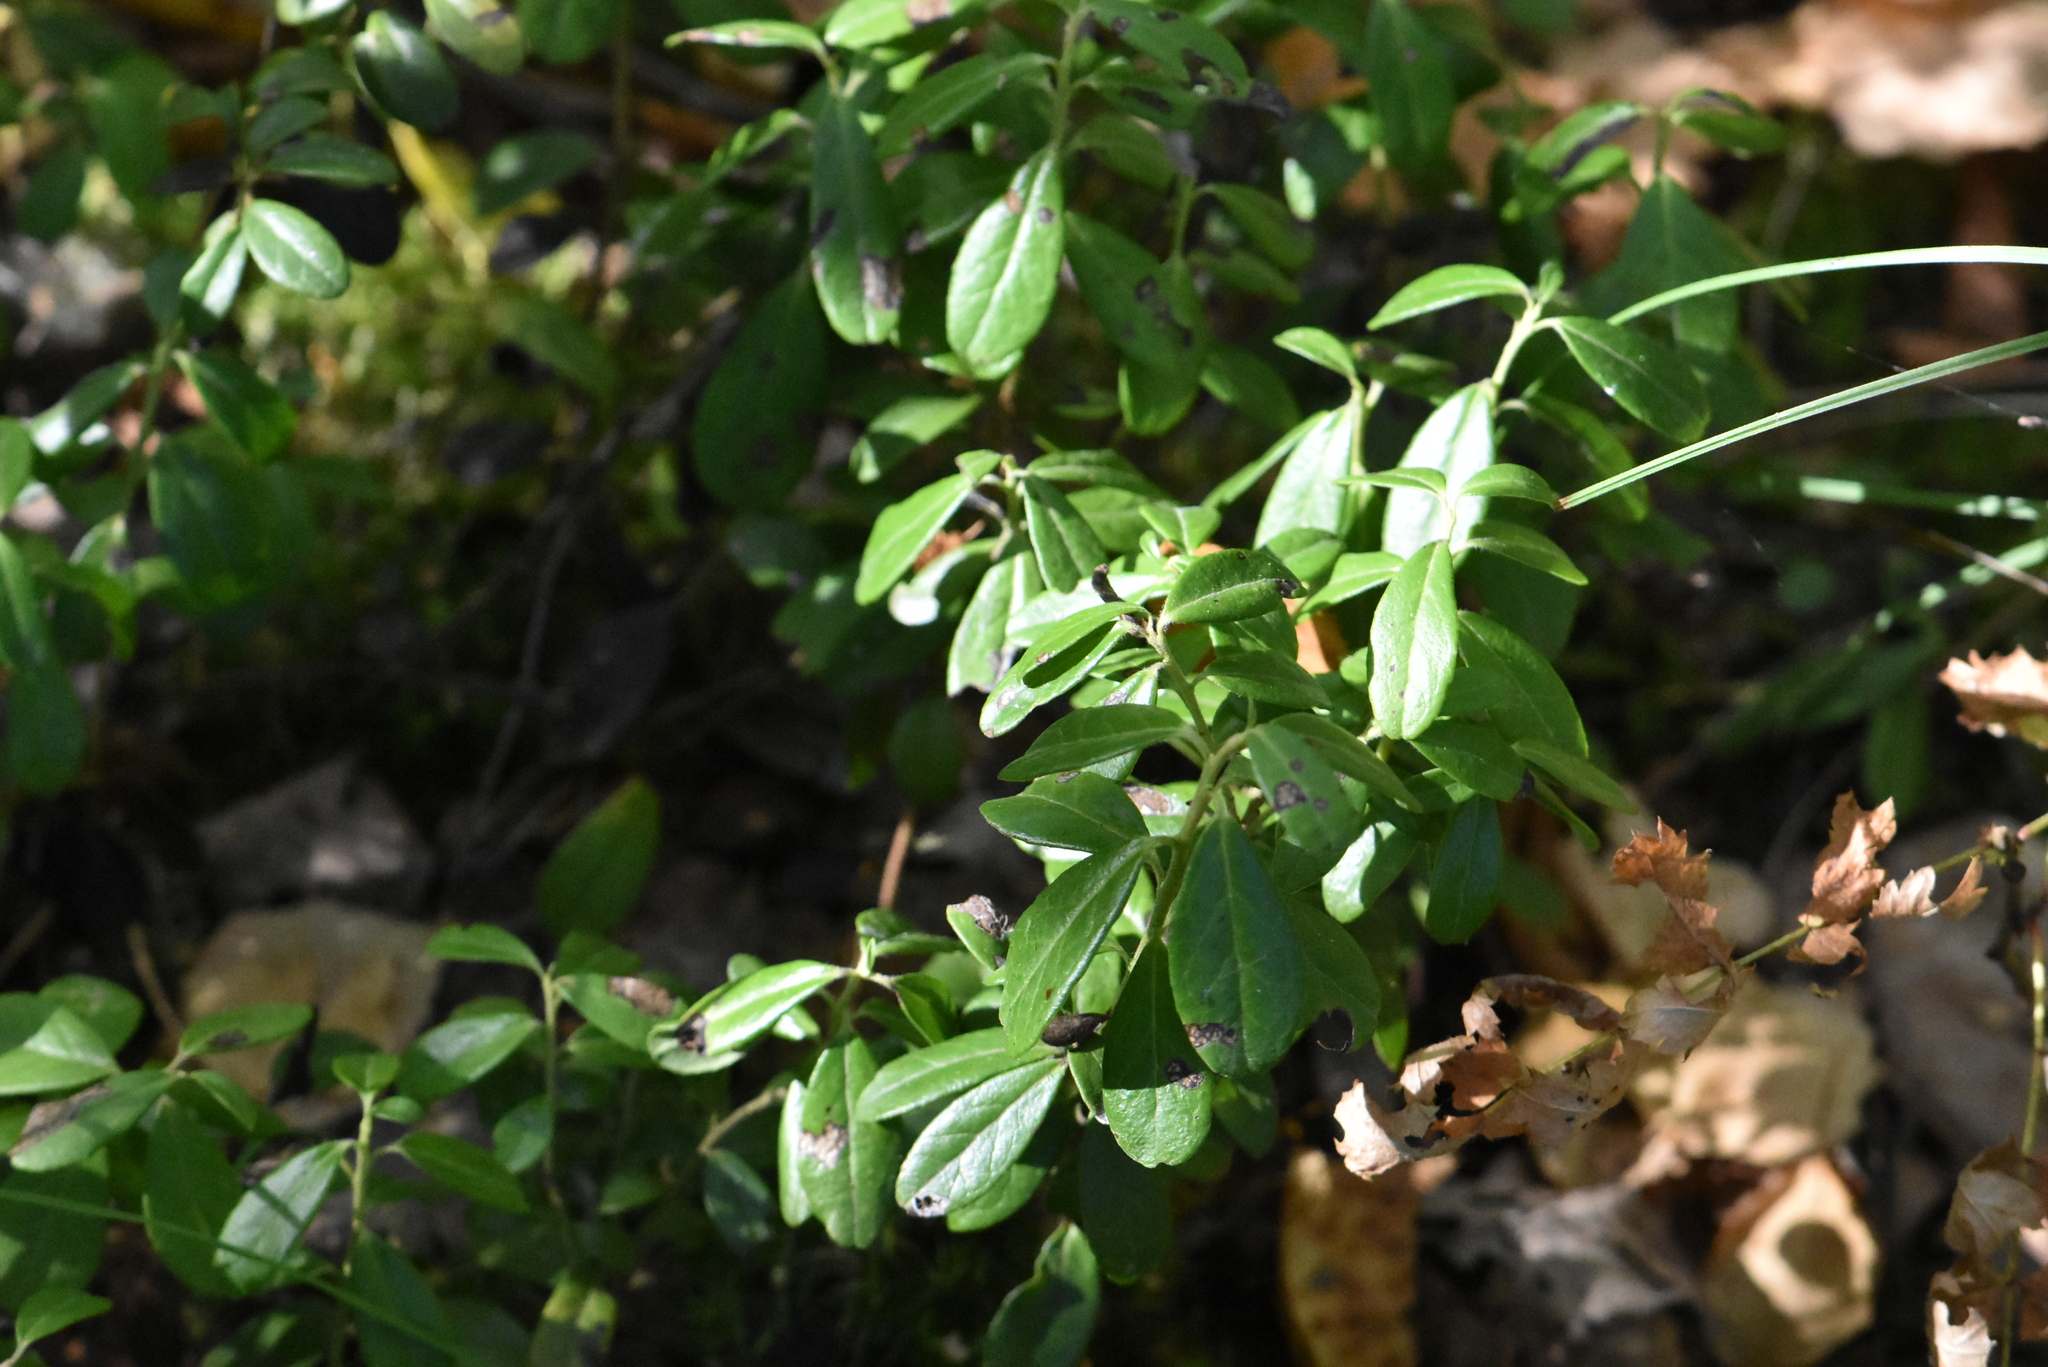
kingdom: Plantae
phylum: Tracheophyta
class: Magnoliopsida
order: Ericales
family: Ericaceae
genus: Vaccinium
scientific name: Vaccinium vitis-idaea
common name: Cowberry
